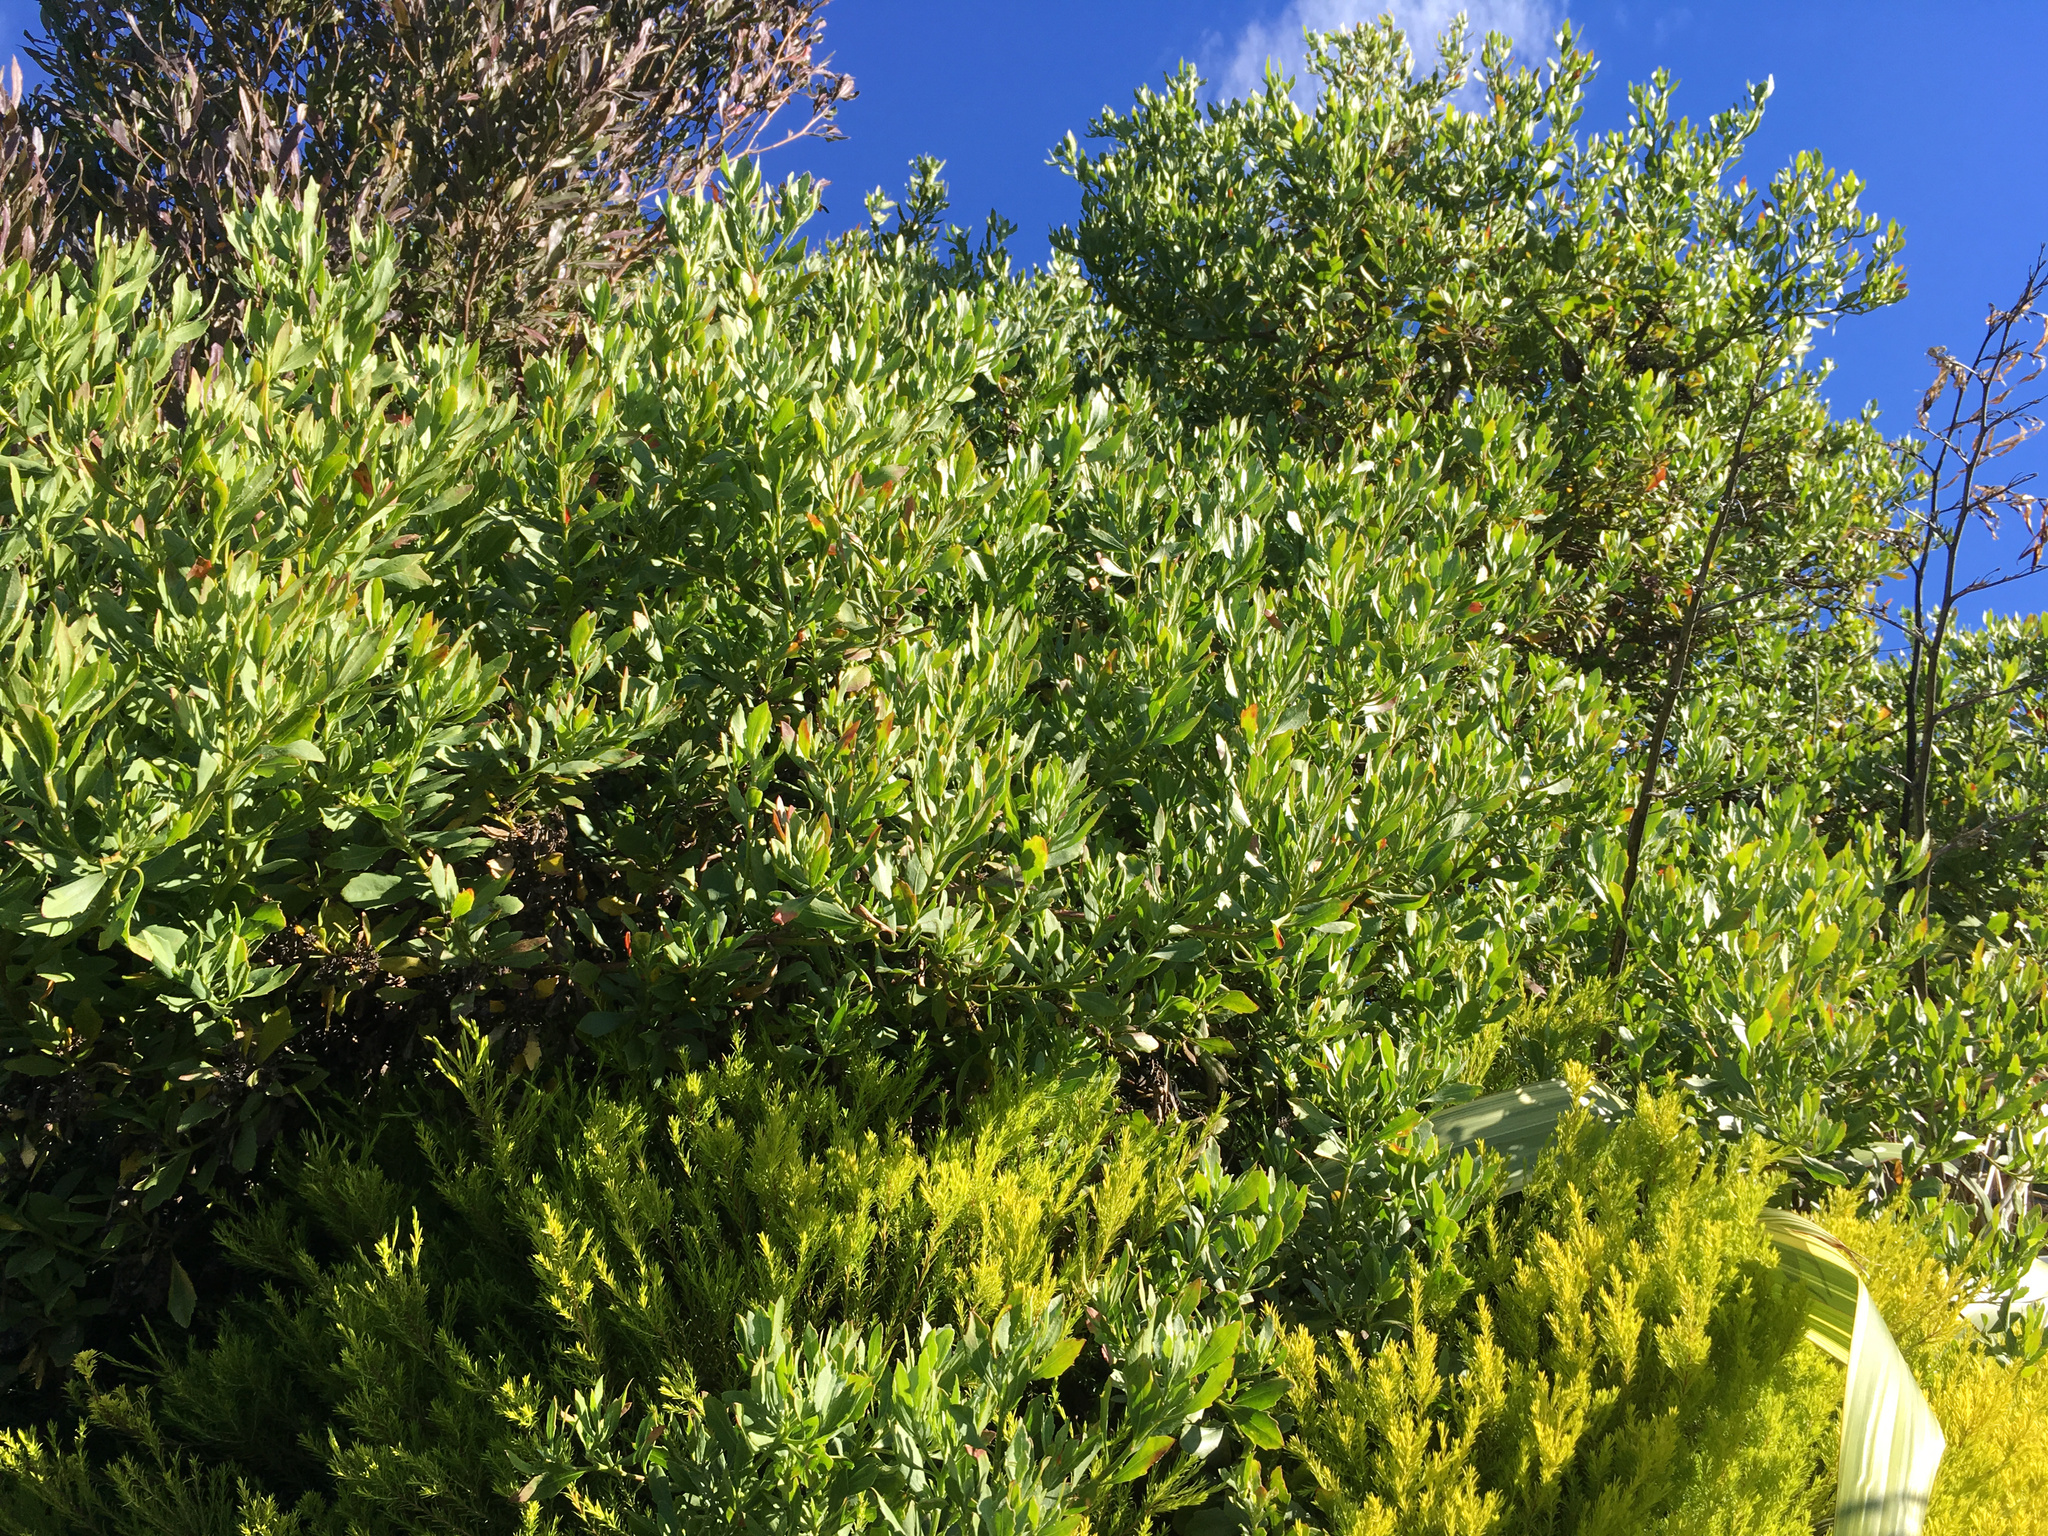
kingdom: Plantae
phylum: Tracheophyta
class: Magnoliopsida
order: Asterales
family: Asteraceae
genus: Osteospermum
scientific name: Osteospermum moniliferum
